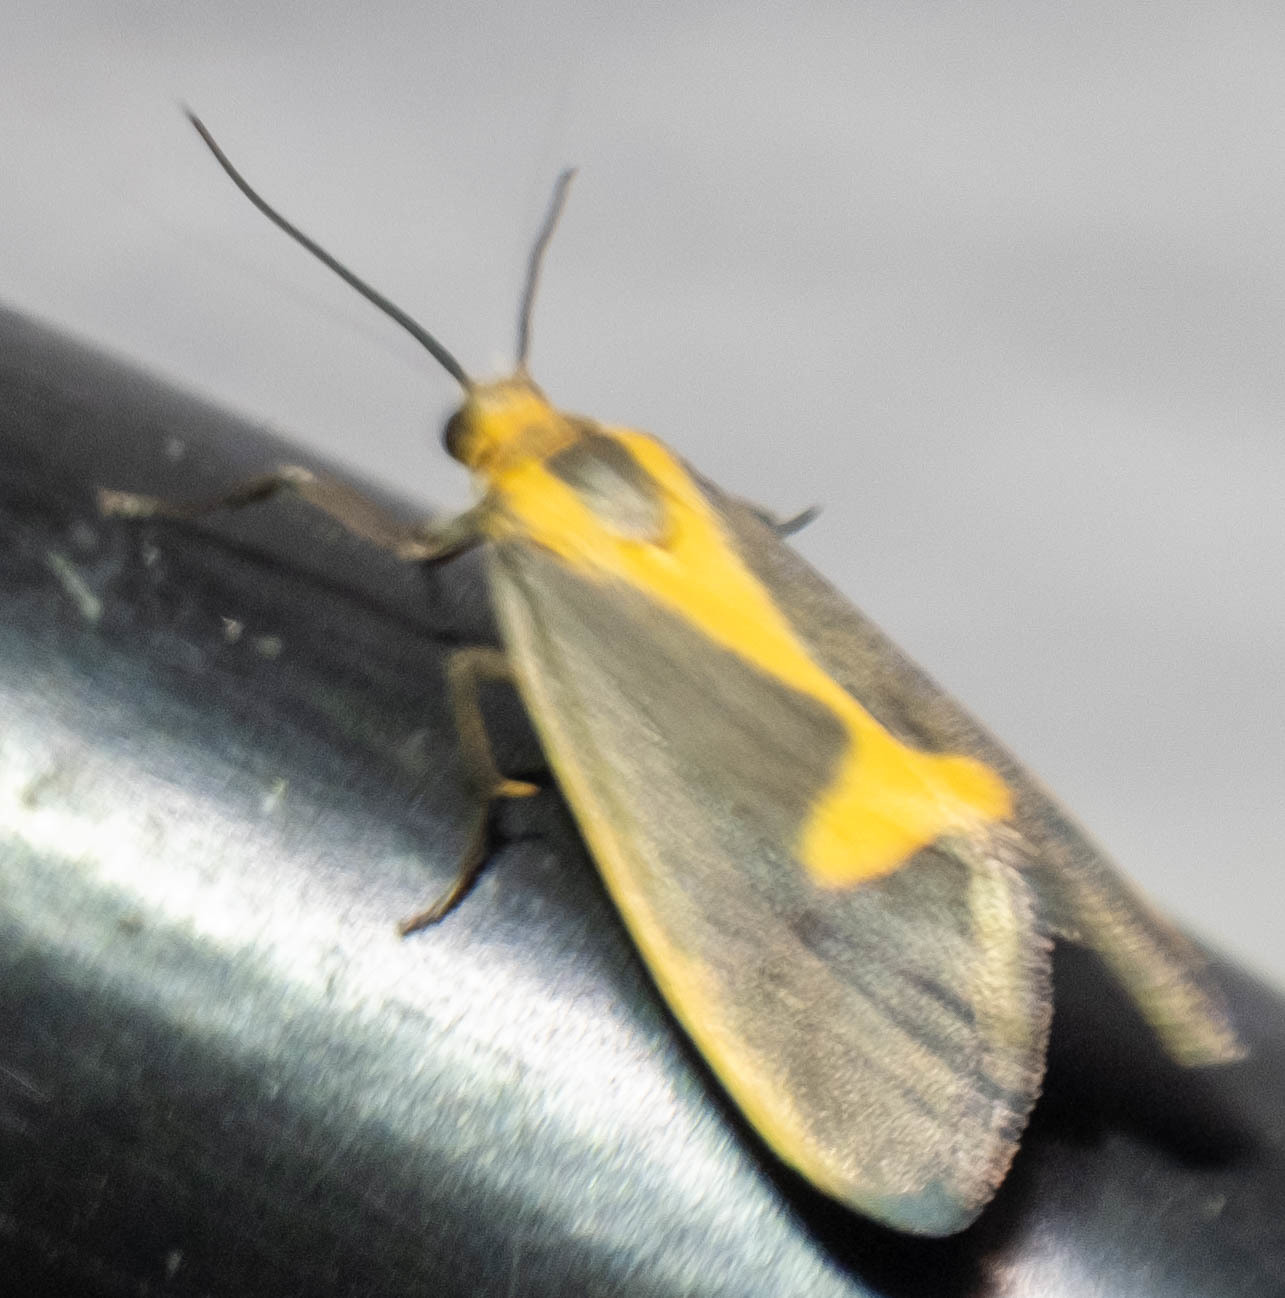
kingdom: Animalia
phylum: Arthropoda
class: Insecta
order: Lepidoptera
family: Erebidae
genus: Cisthene
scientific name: Cisthene plumbea
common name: Lead colored lichen moth
